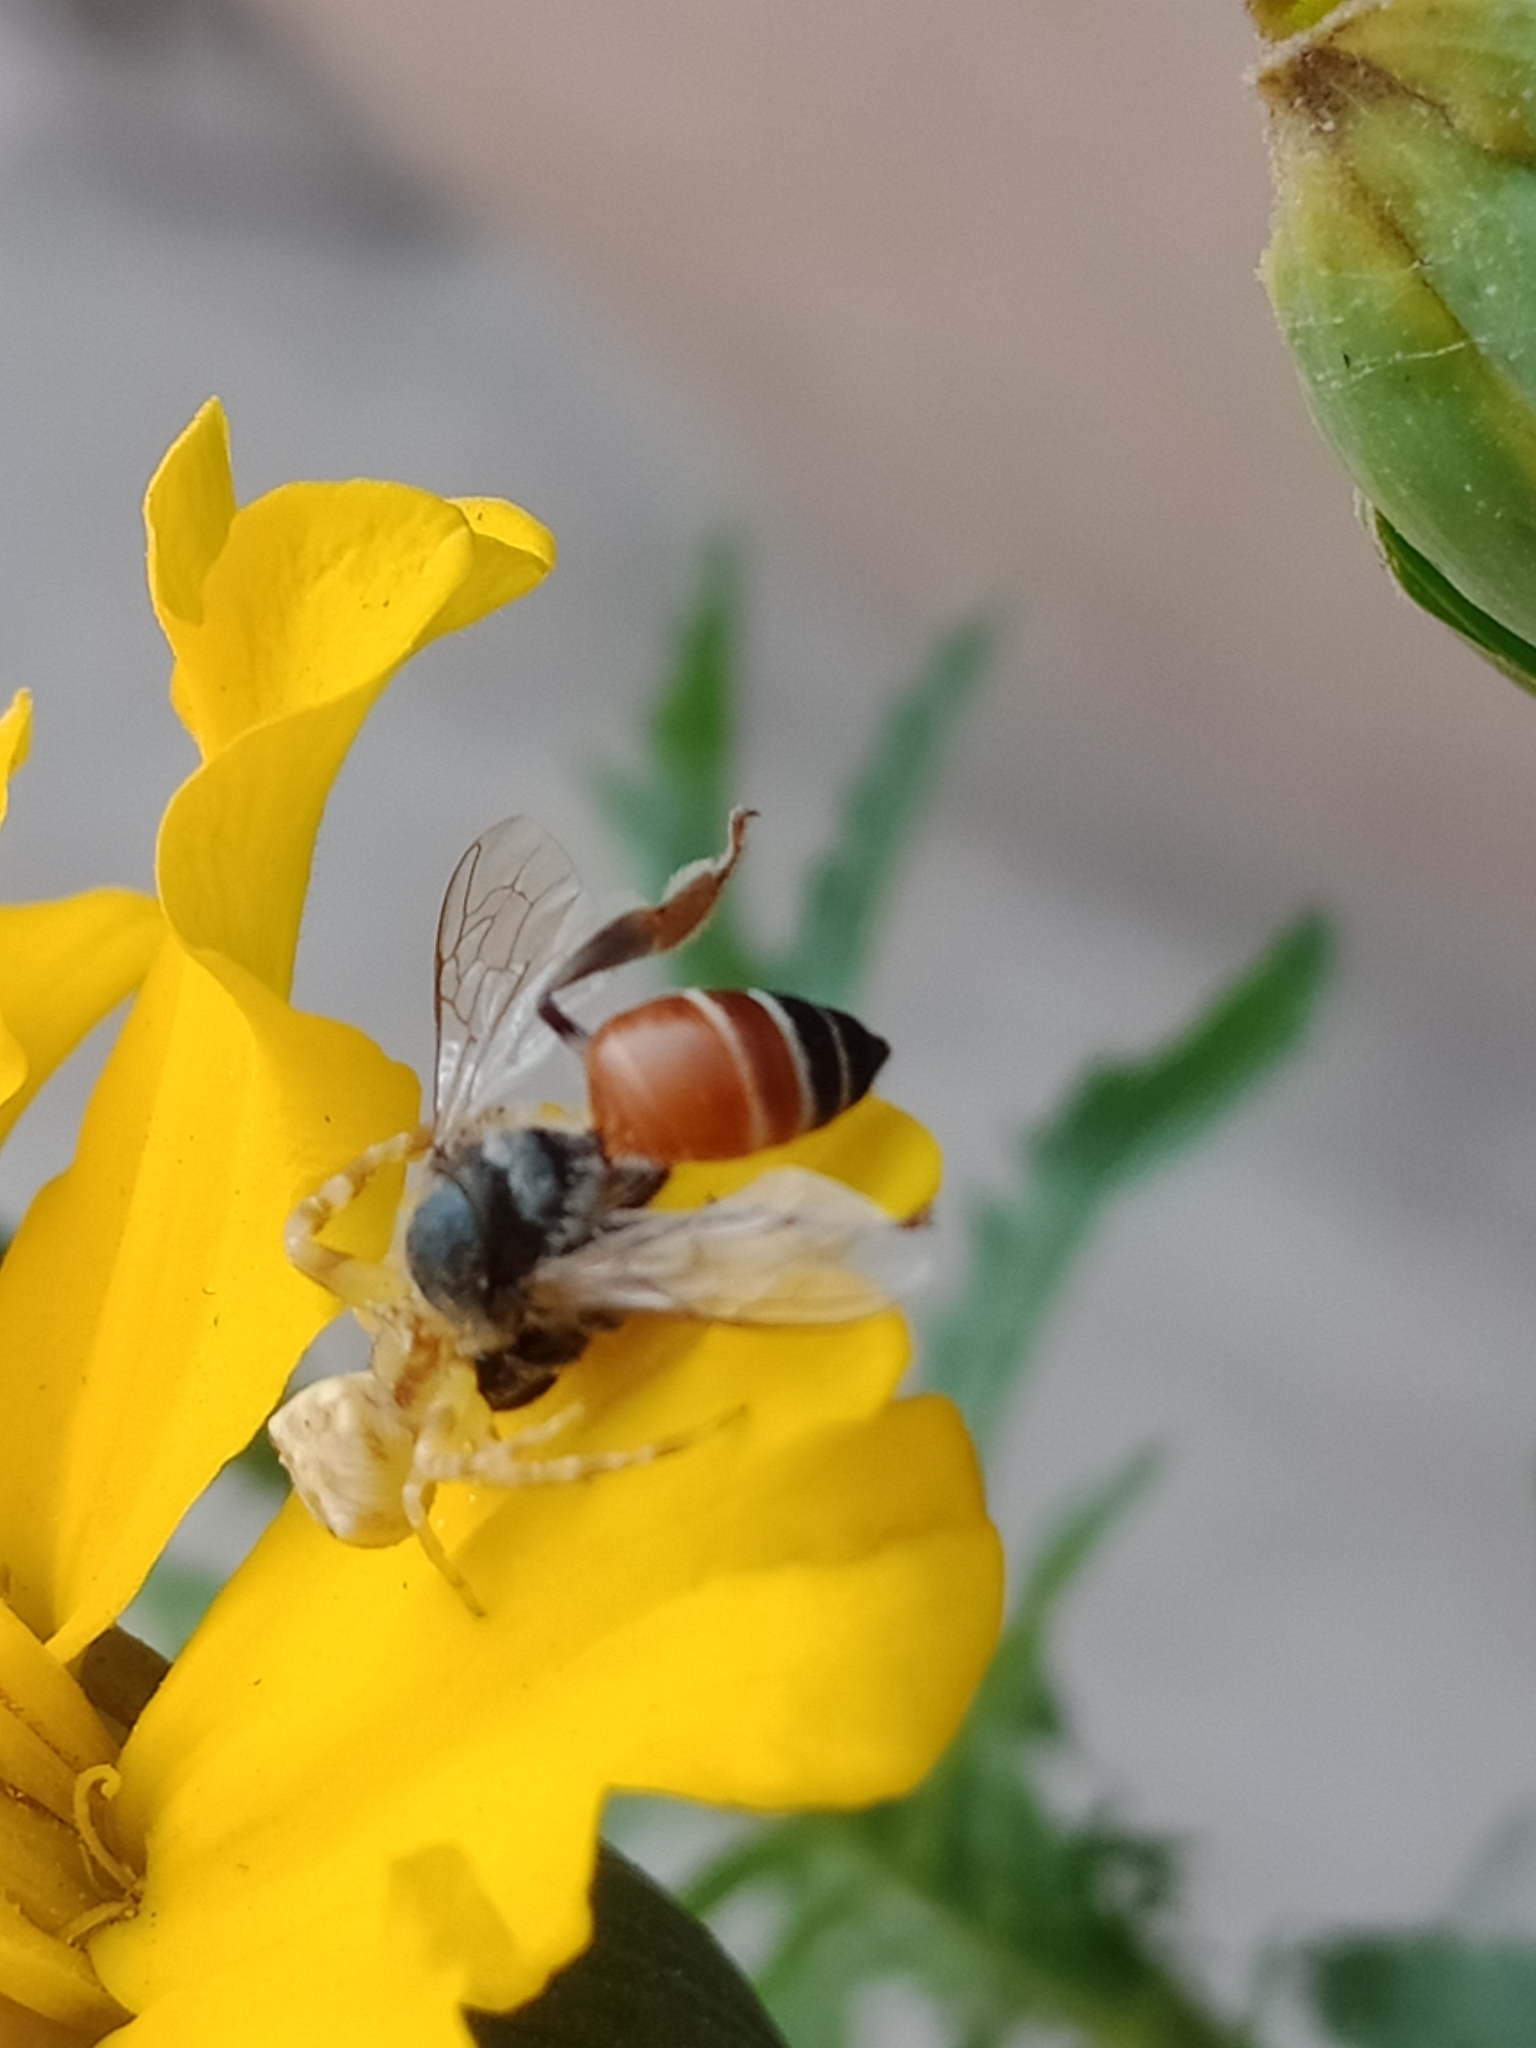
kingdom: Animalia
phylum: Arthropoda
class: Insecta
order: Hymenoptera
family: Apidae
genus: Apis
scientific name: Apis florea
